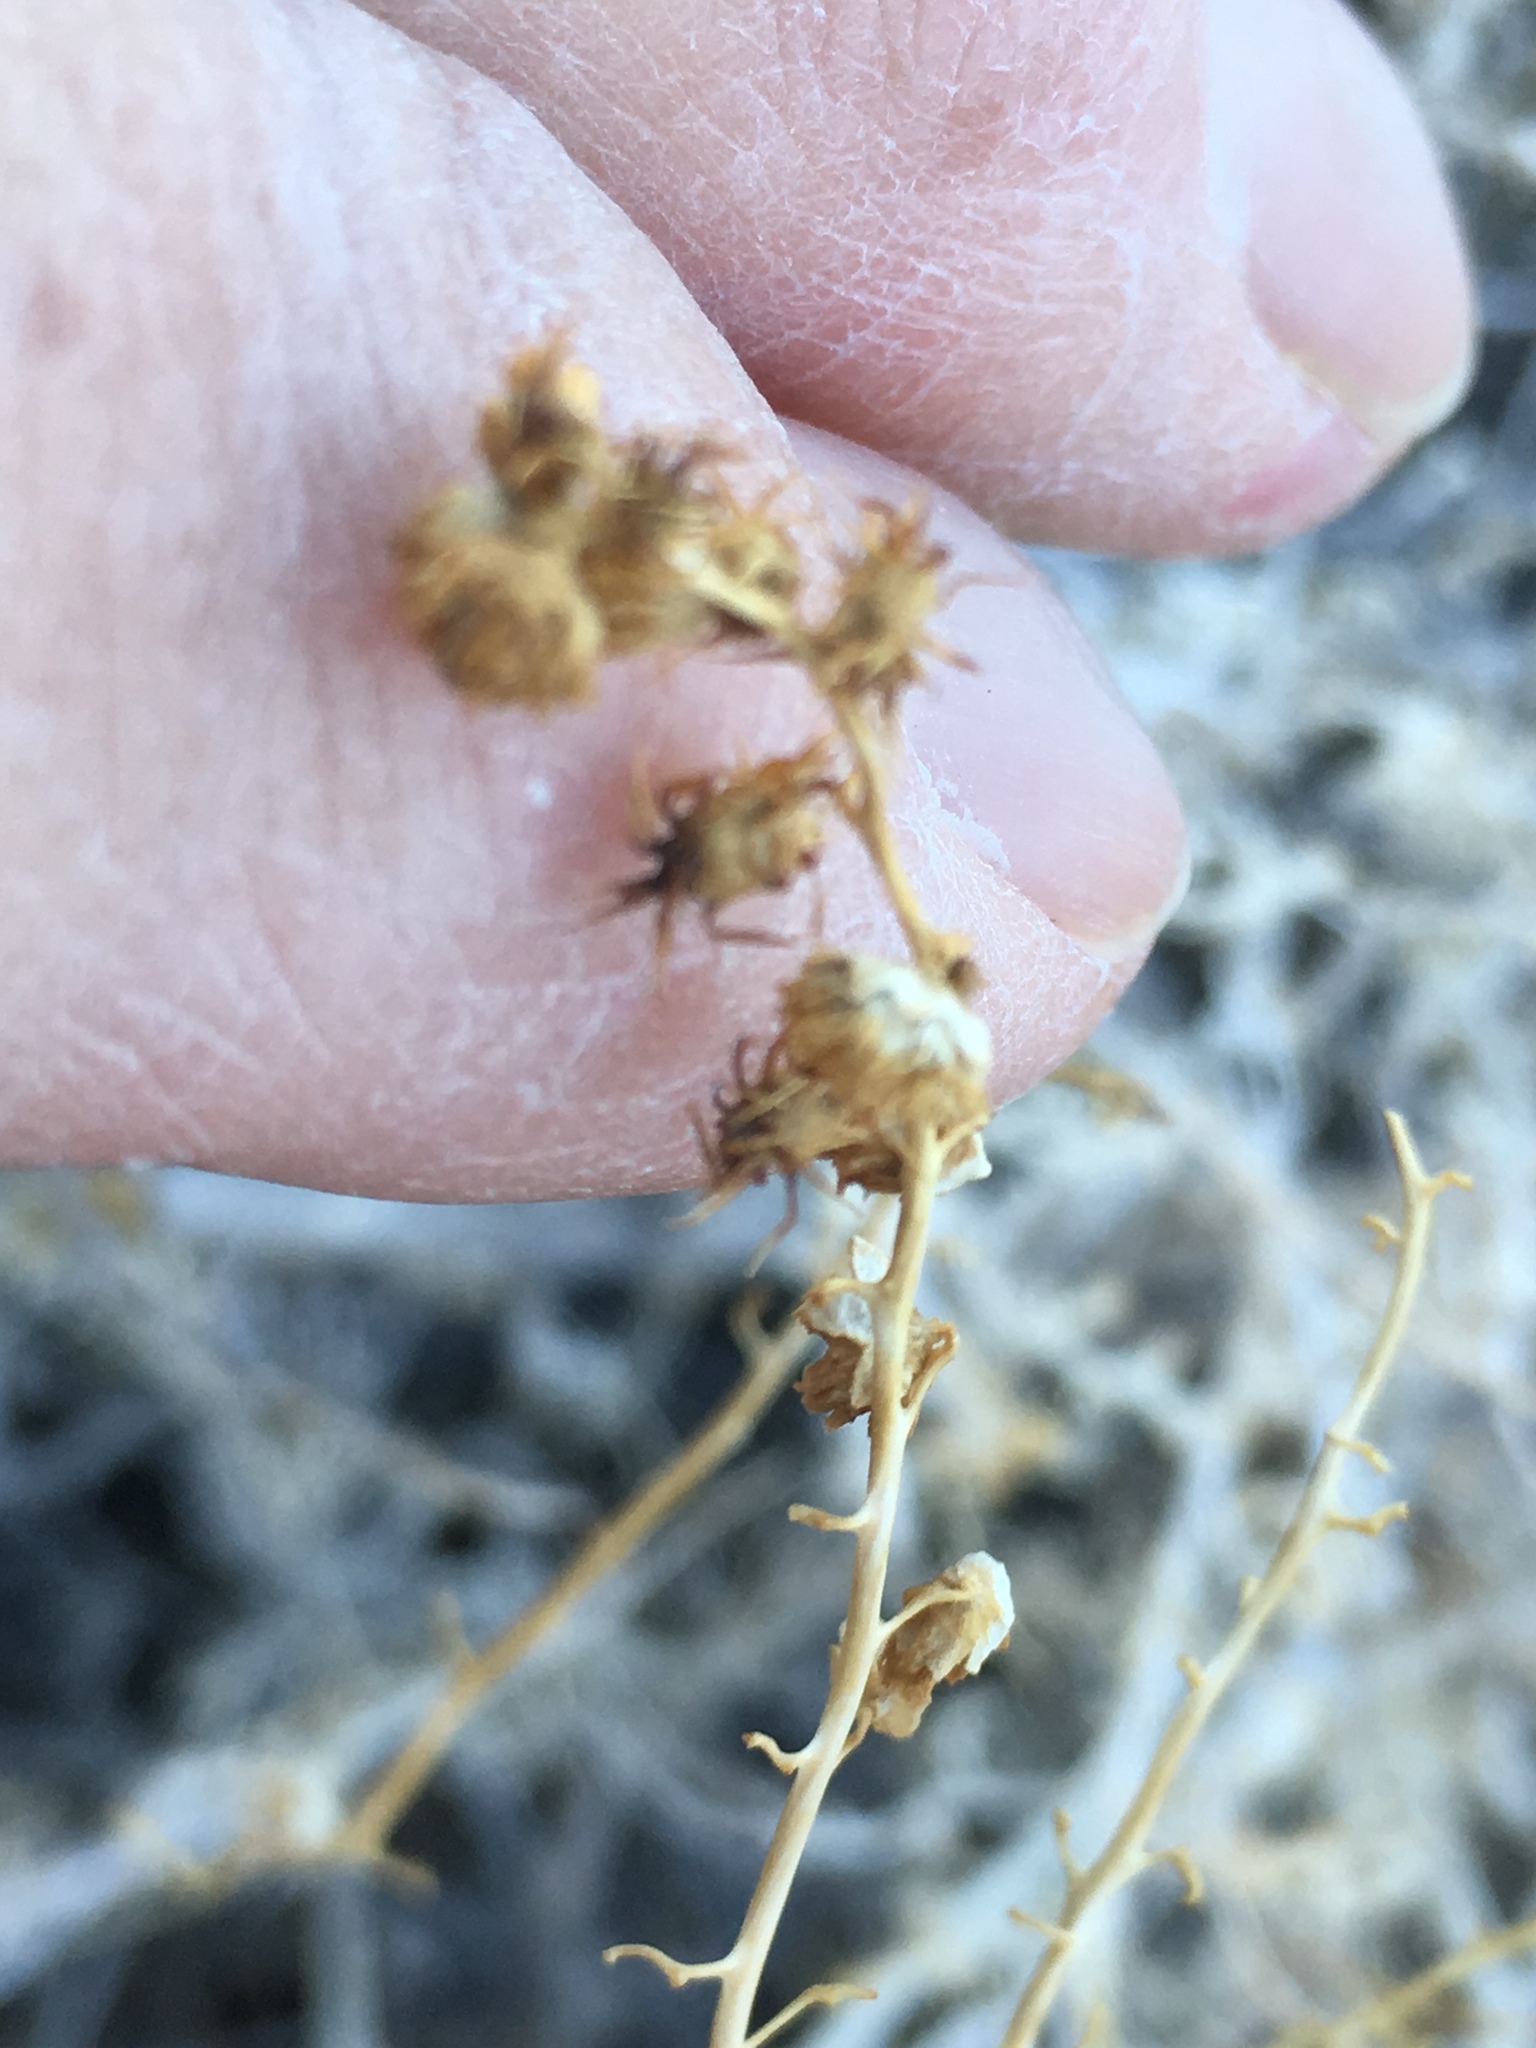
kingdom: Plantae
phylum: Tracheophyta
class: Magnoliopsida
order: Asterales
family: Asteraceae
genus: Ambrosia
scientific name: Ambrosia dumosa
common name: Bur-sage
